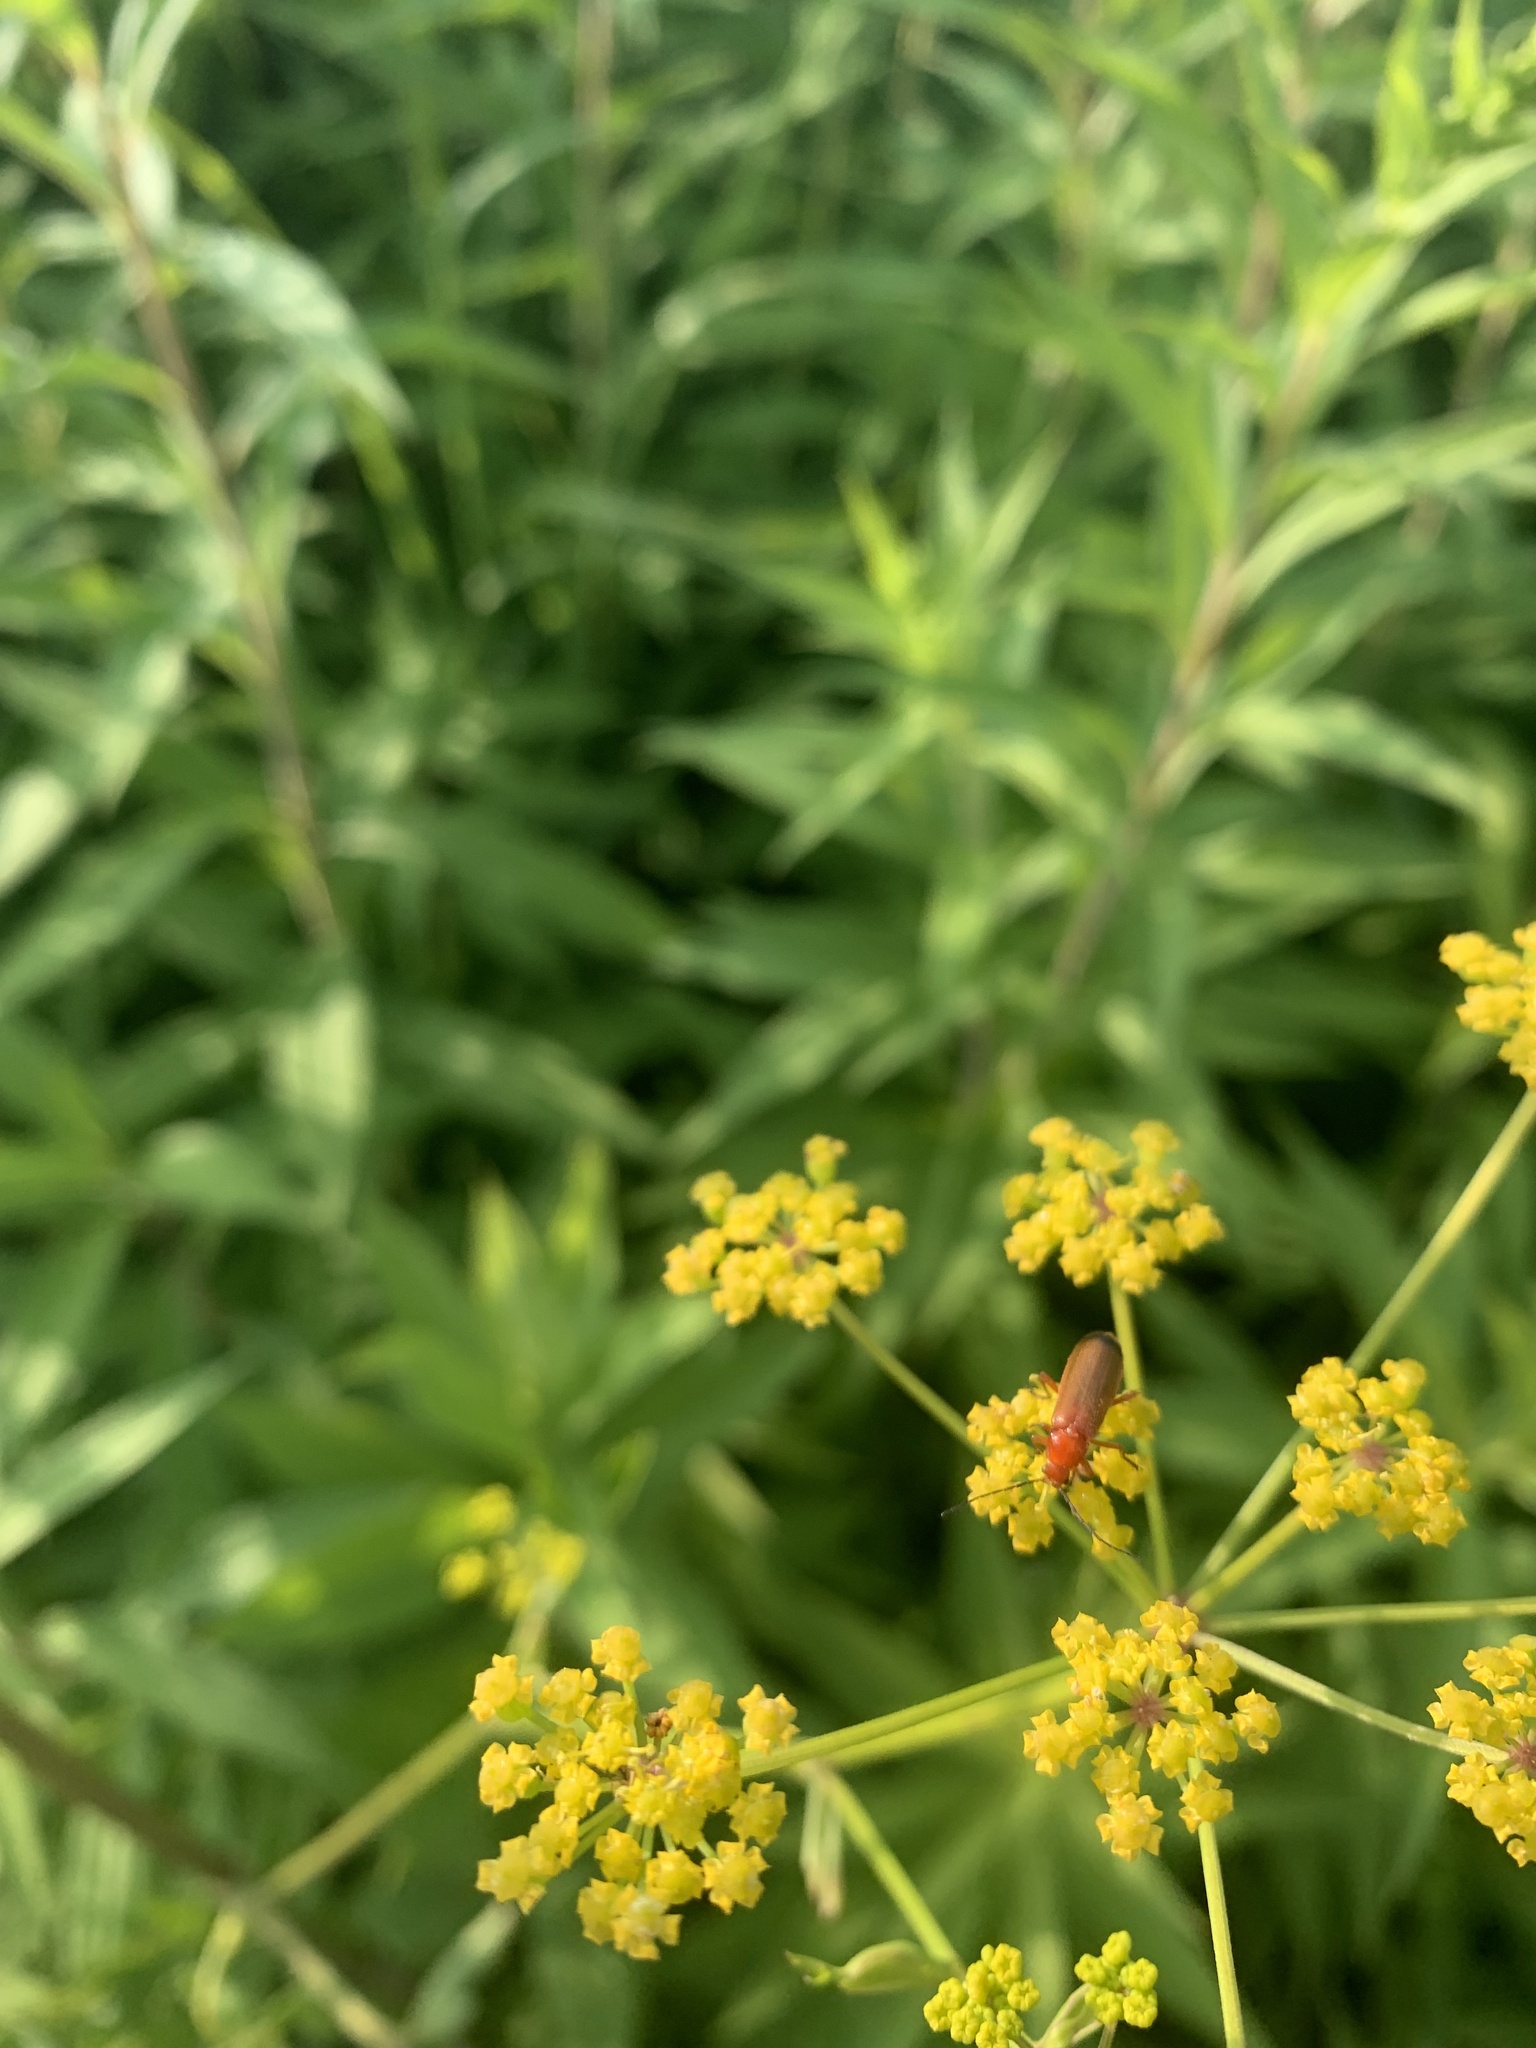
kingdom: Animalia
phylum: Arthropoda
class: Insecta
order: Coleoptera
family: Cantharidae
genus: Rhagonycha
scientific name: Rhagonycha fulva
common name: Common red soldier beetle
